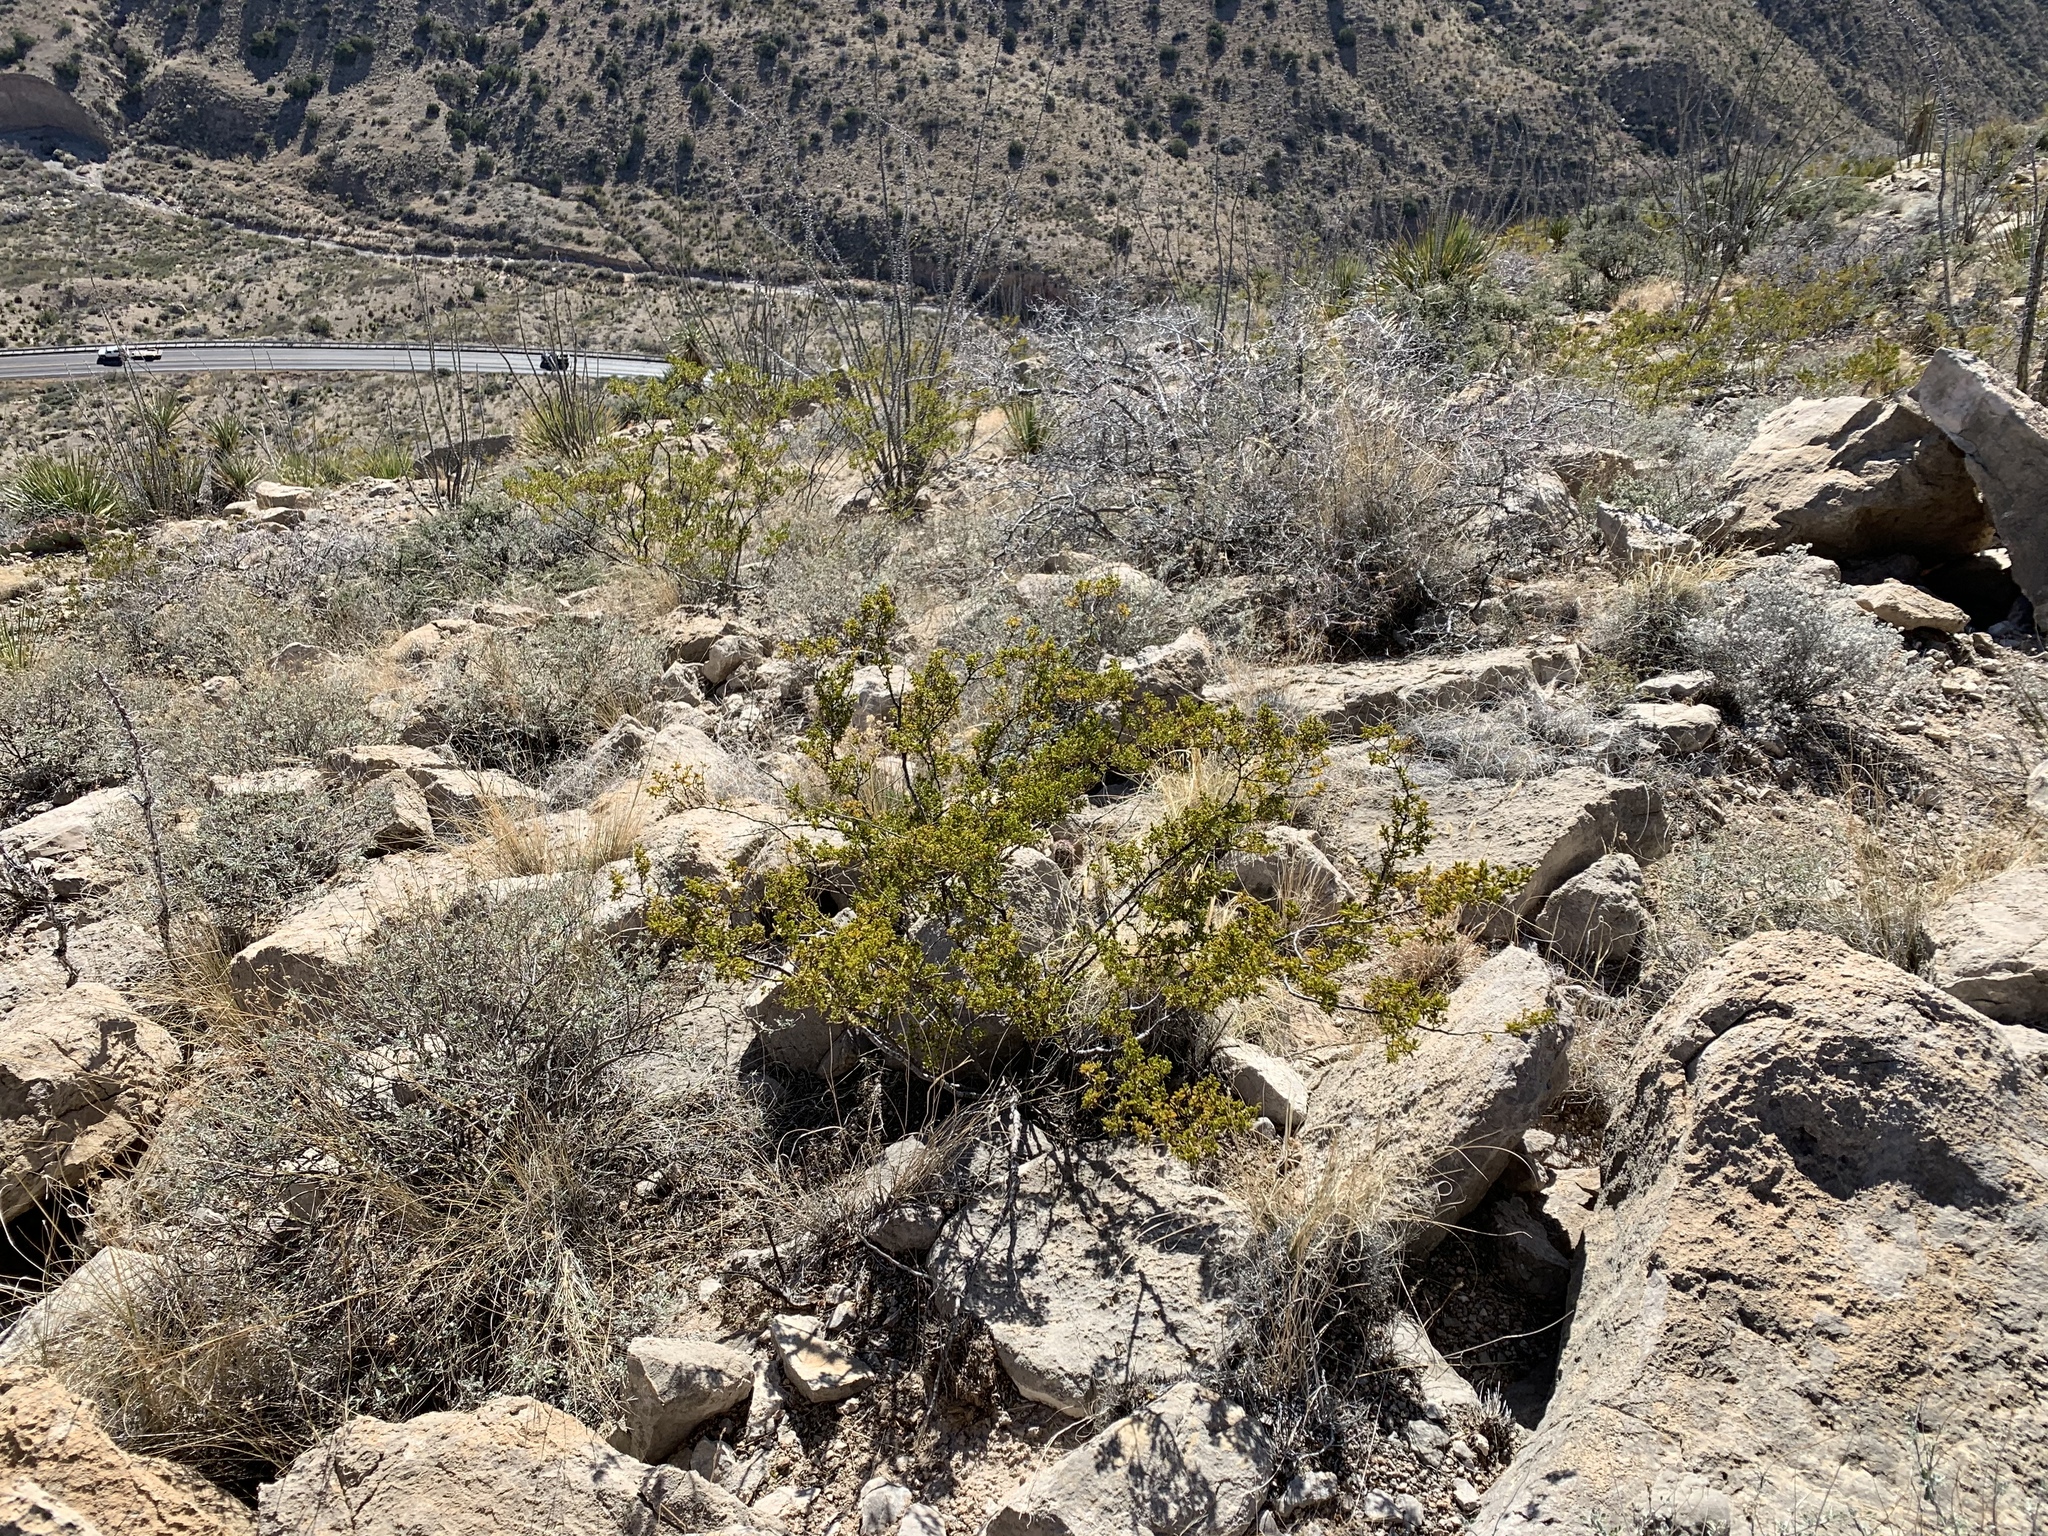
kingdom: Plantae
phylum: Tracheophyta
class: Magnoliopsida
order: Zygophyllales
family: Zygophyllaceae
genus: Larrea
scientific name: Larrea tridentata
